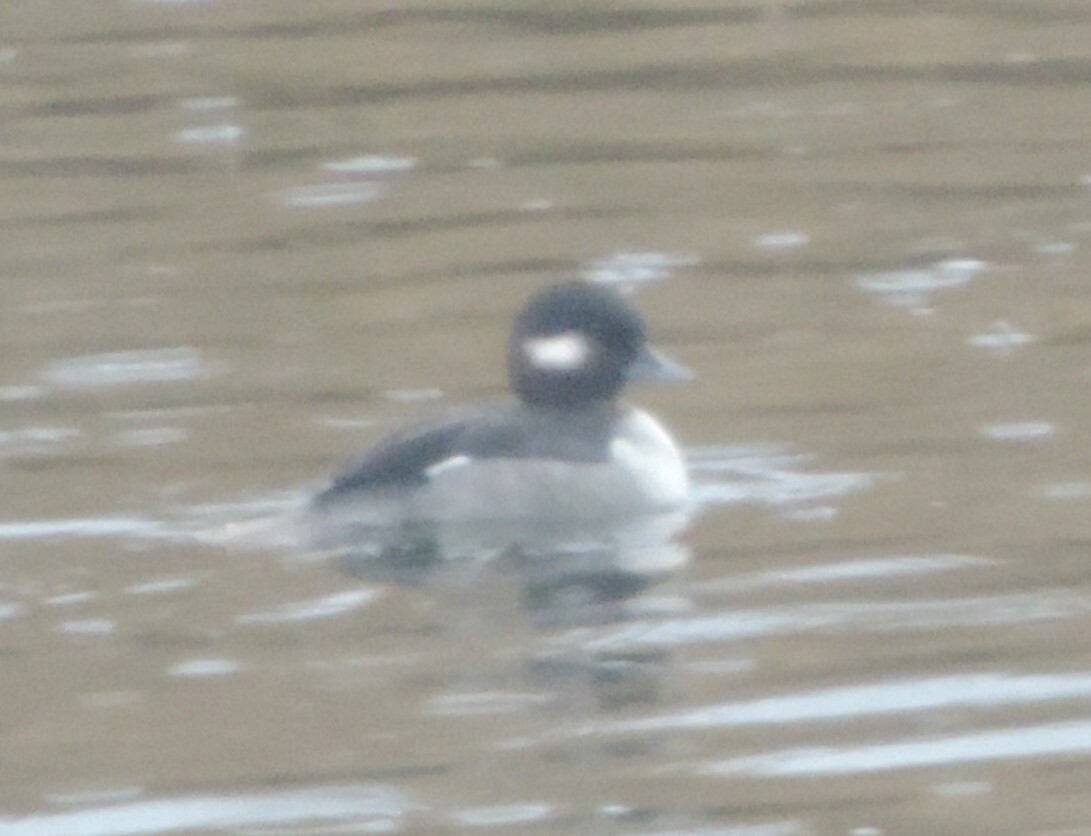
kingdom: Animalia
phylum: Chordata
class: Aves
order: Anseriformes
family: Anatidae
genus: Bucephala
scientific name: Bucephala albeola
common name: Bufflehead
